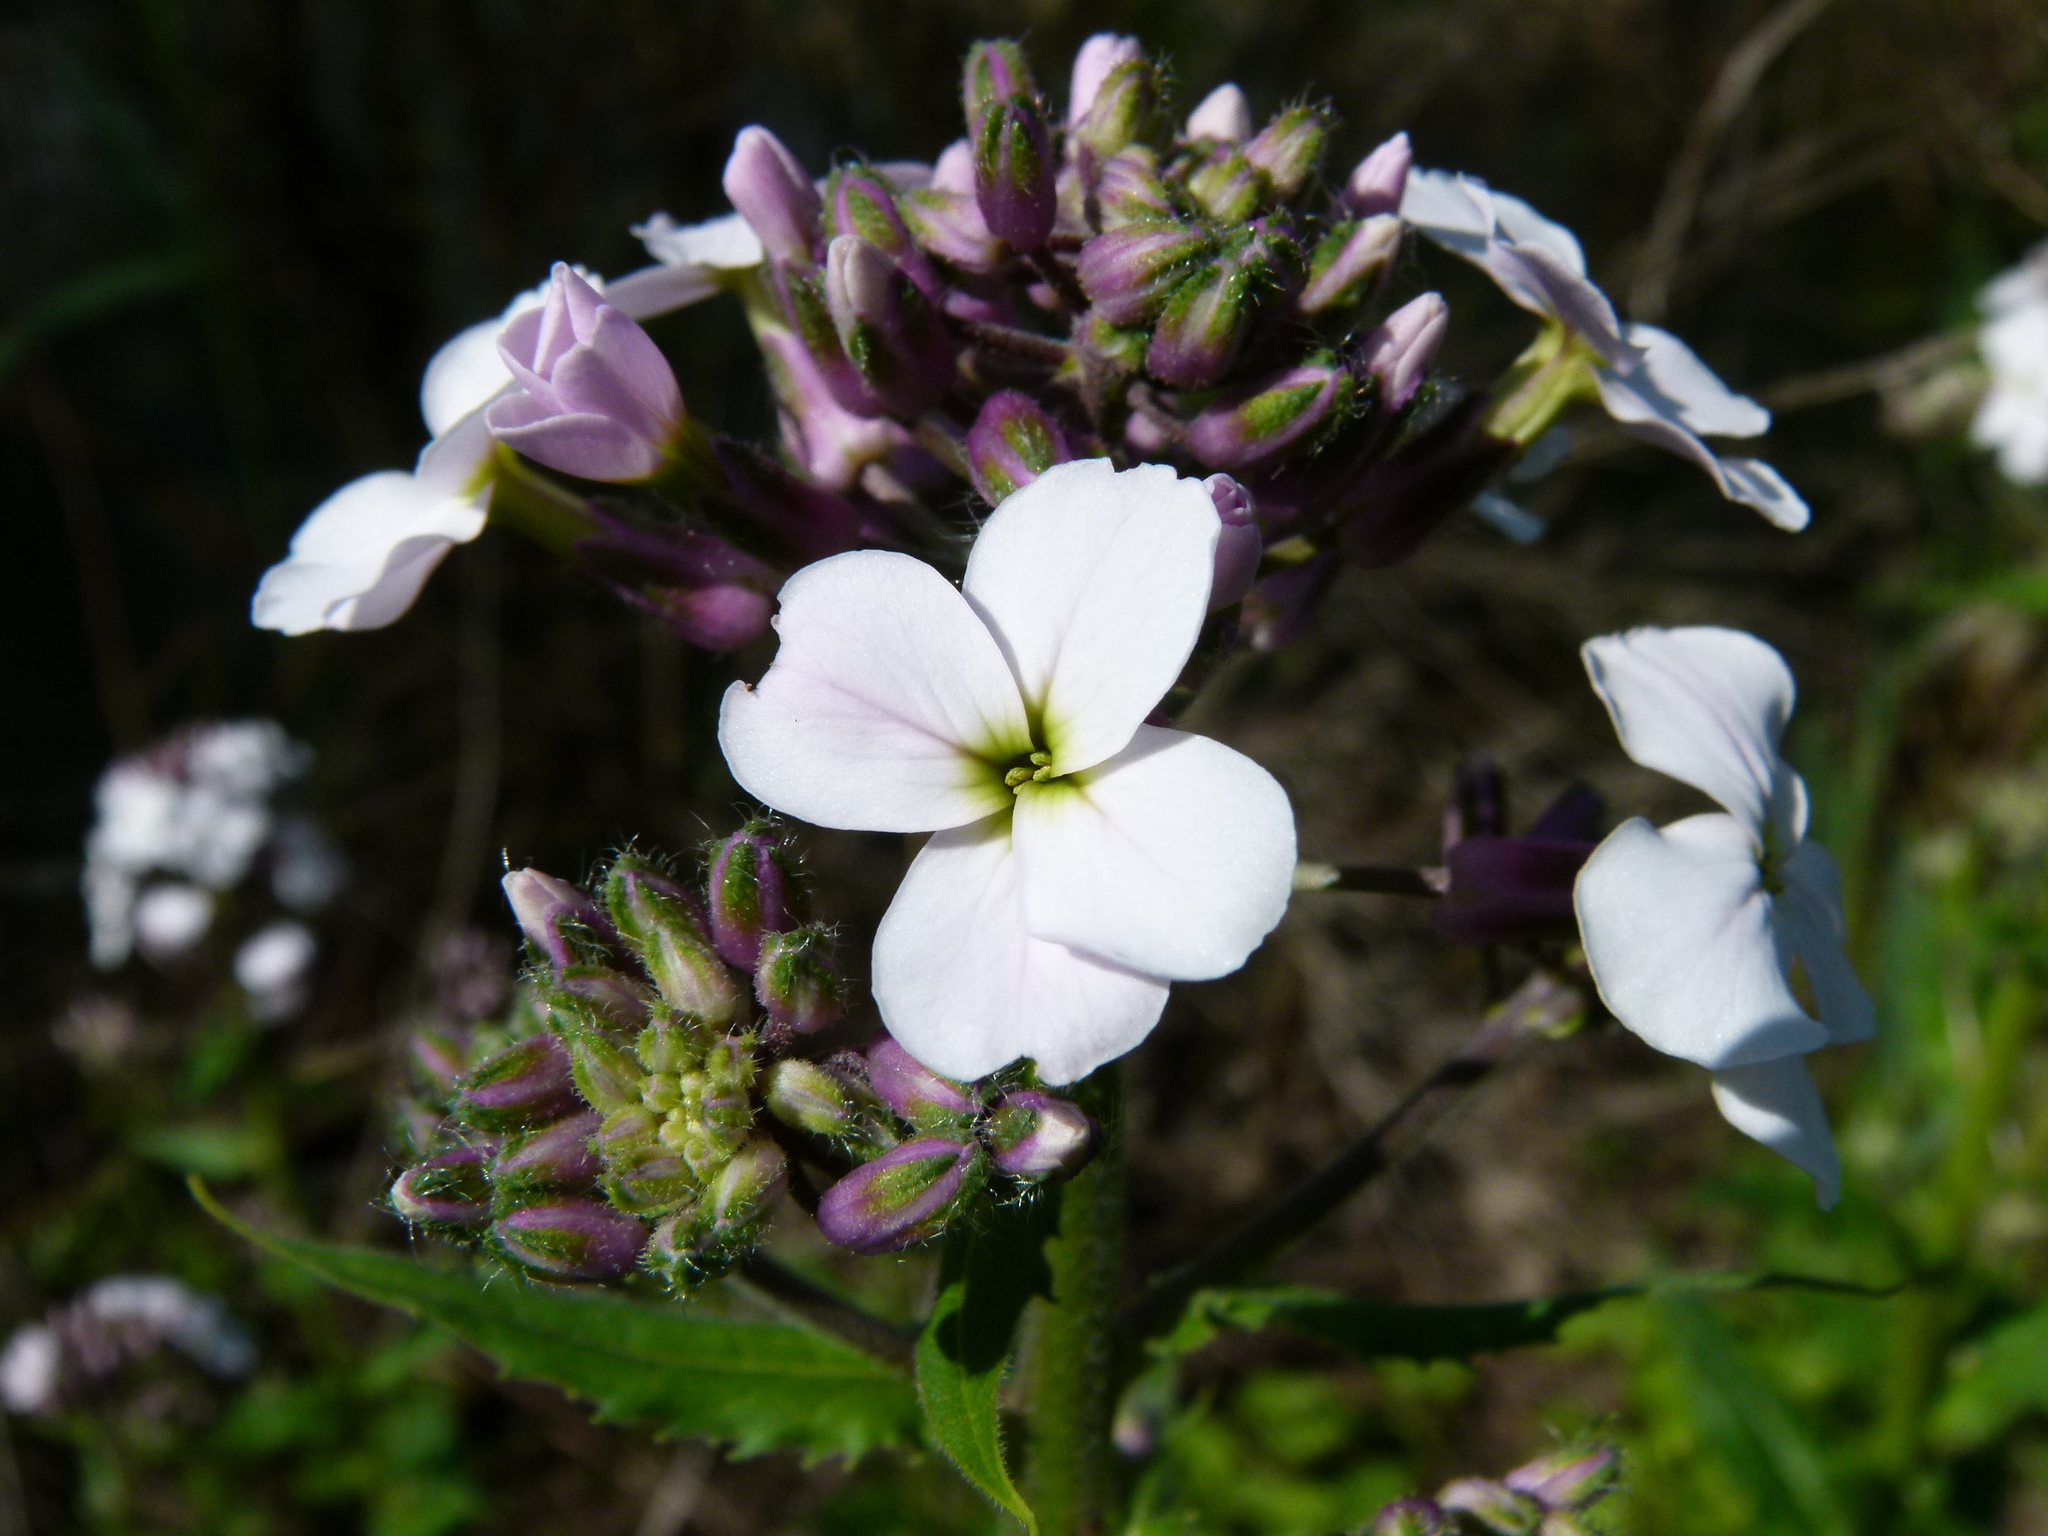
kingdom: Plantae
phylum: Tracheophyta
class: Magnoliopsida
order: Brassicales
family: Brassicaceae
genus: Hesperis
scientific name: Hesperis matronalis
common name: Dame's-violet
